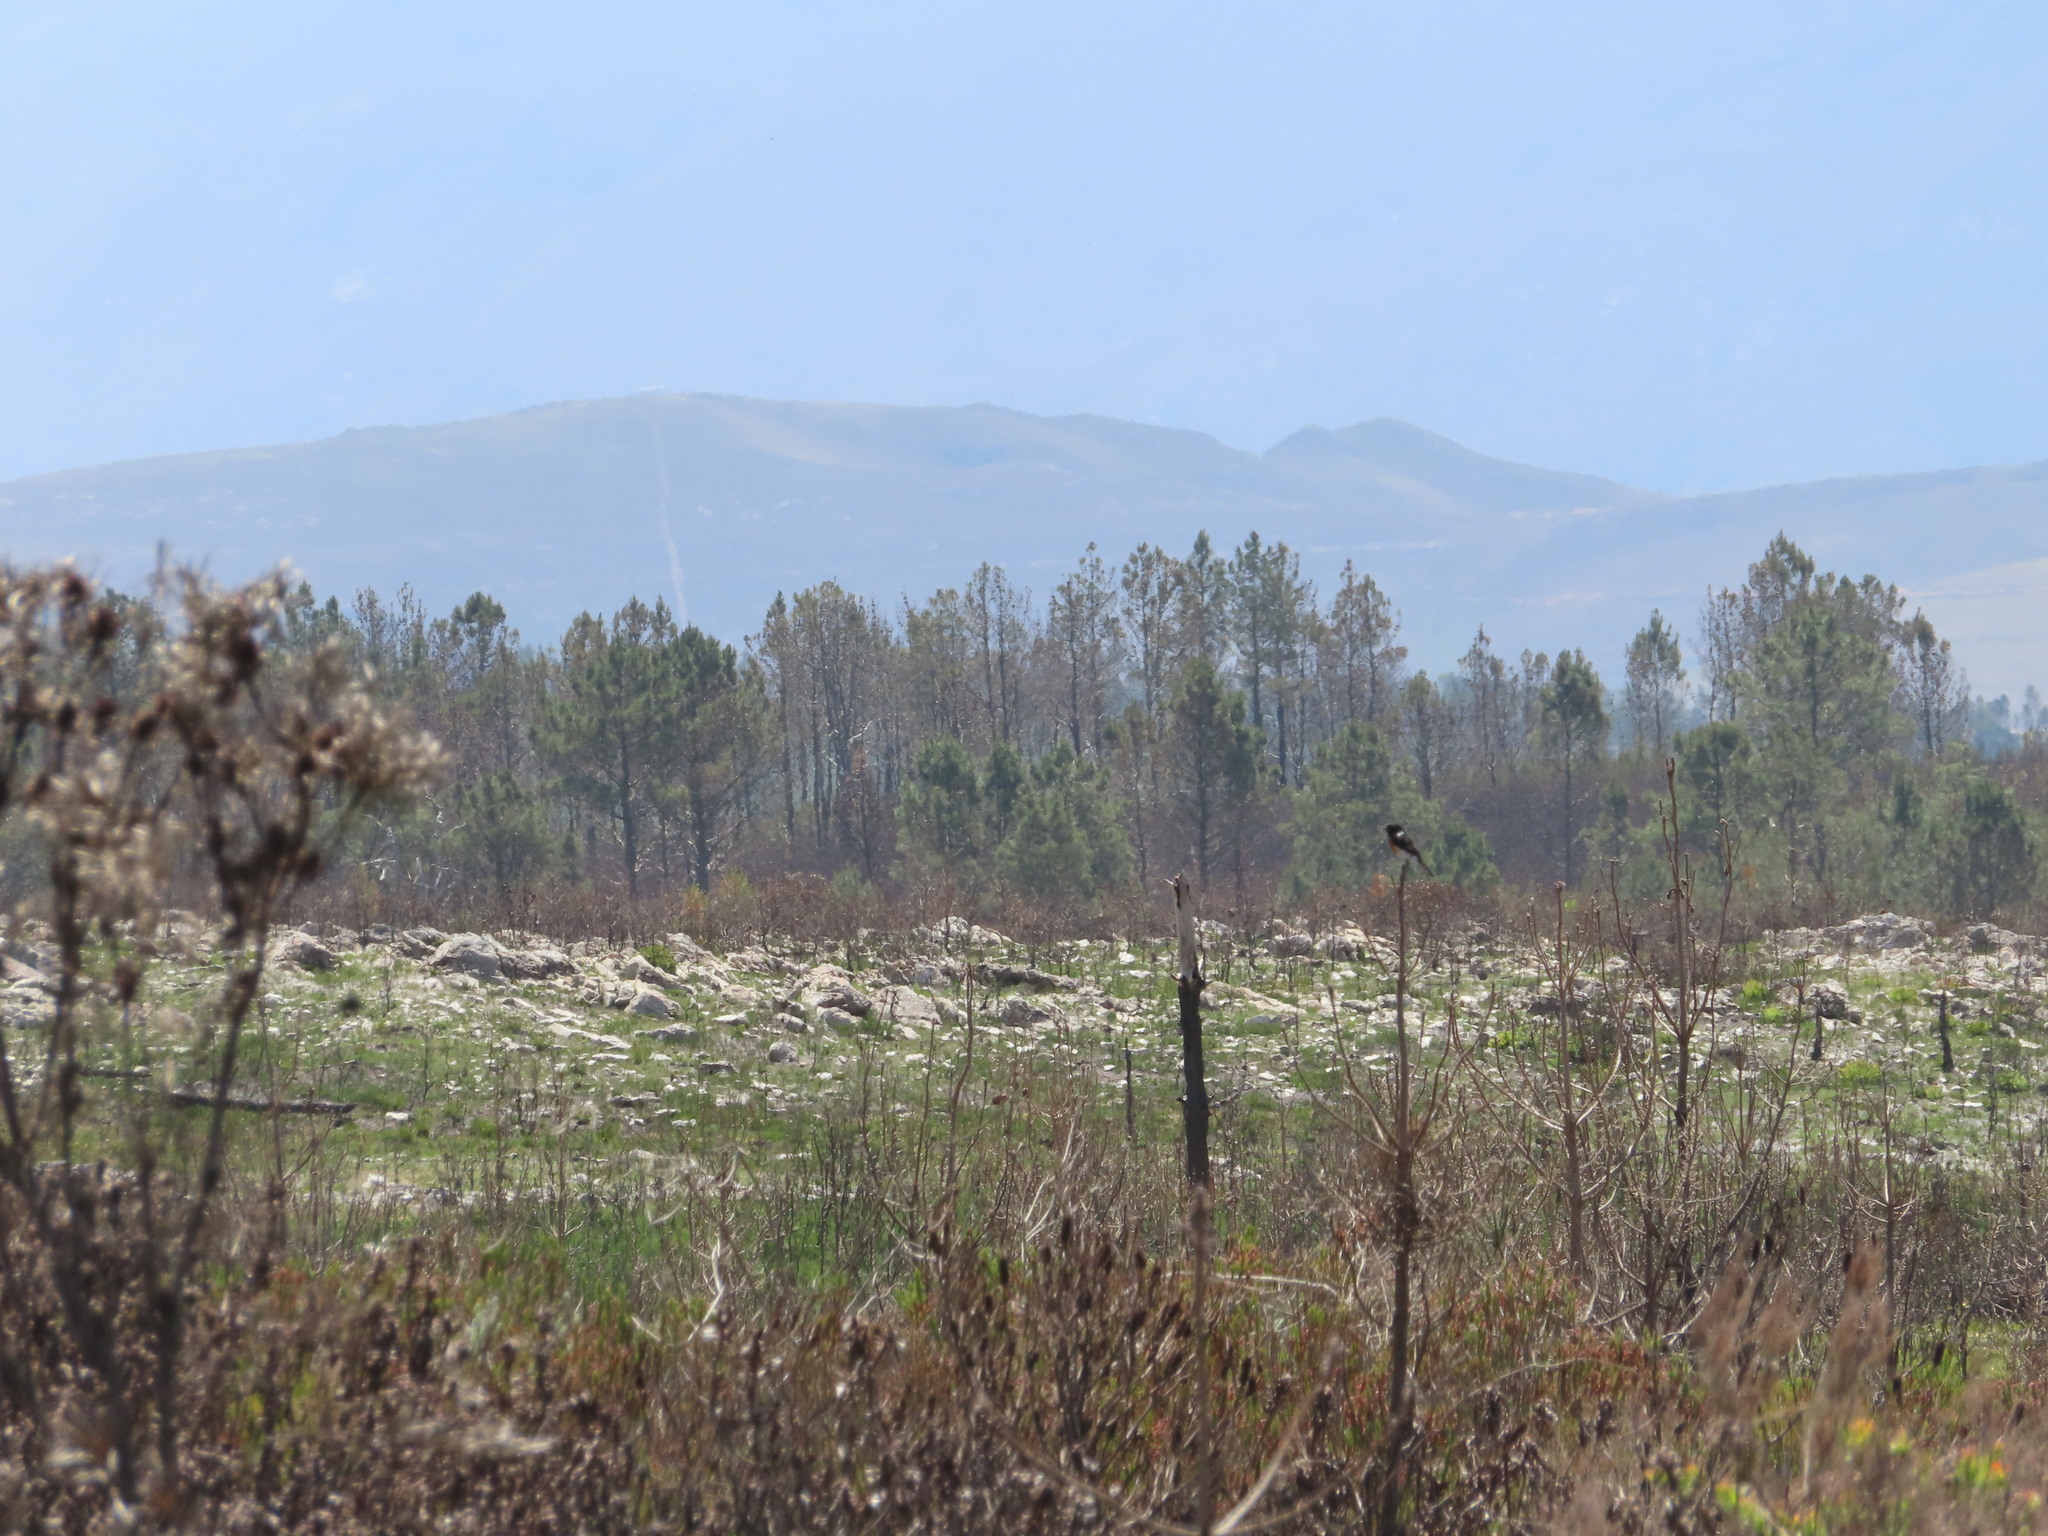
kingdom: Animalia
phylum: Chordata
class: Aves
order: Passeriformes
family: Muscicapidae
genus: Saxicola
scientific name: Saxicola torquatus
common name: African stonechat
